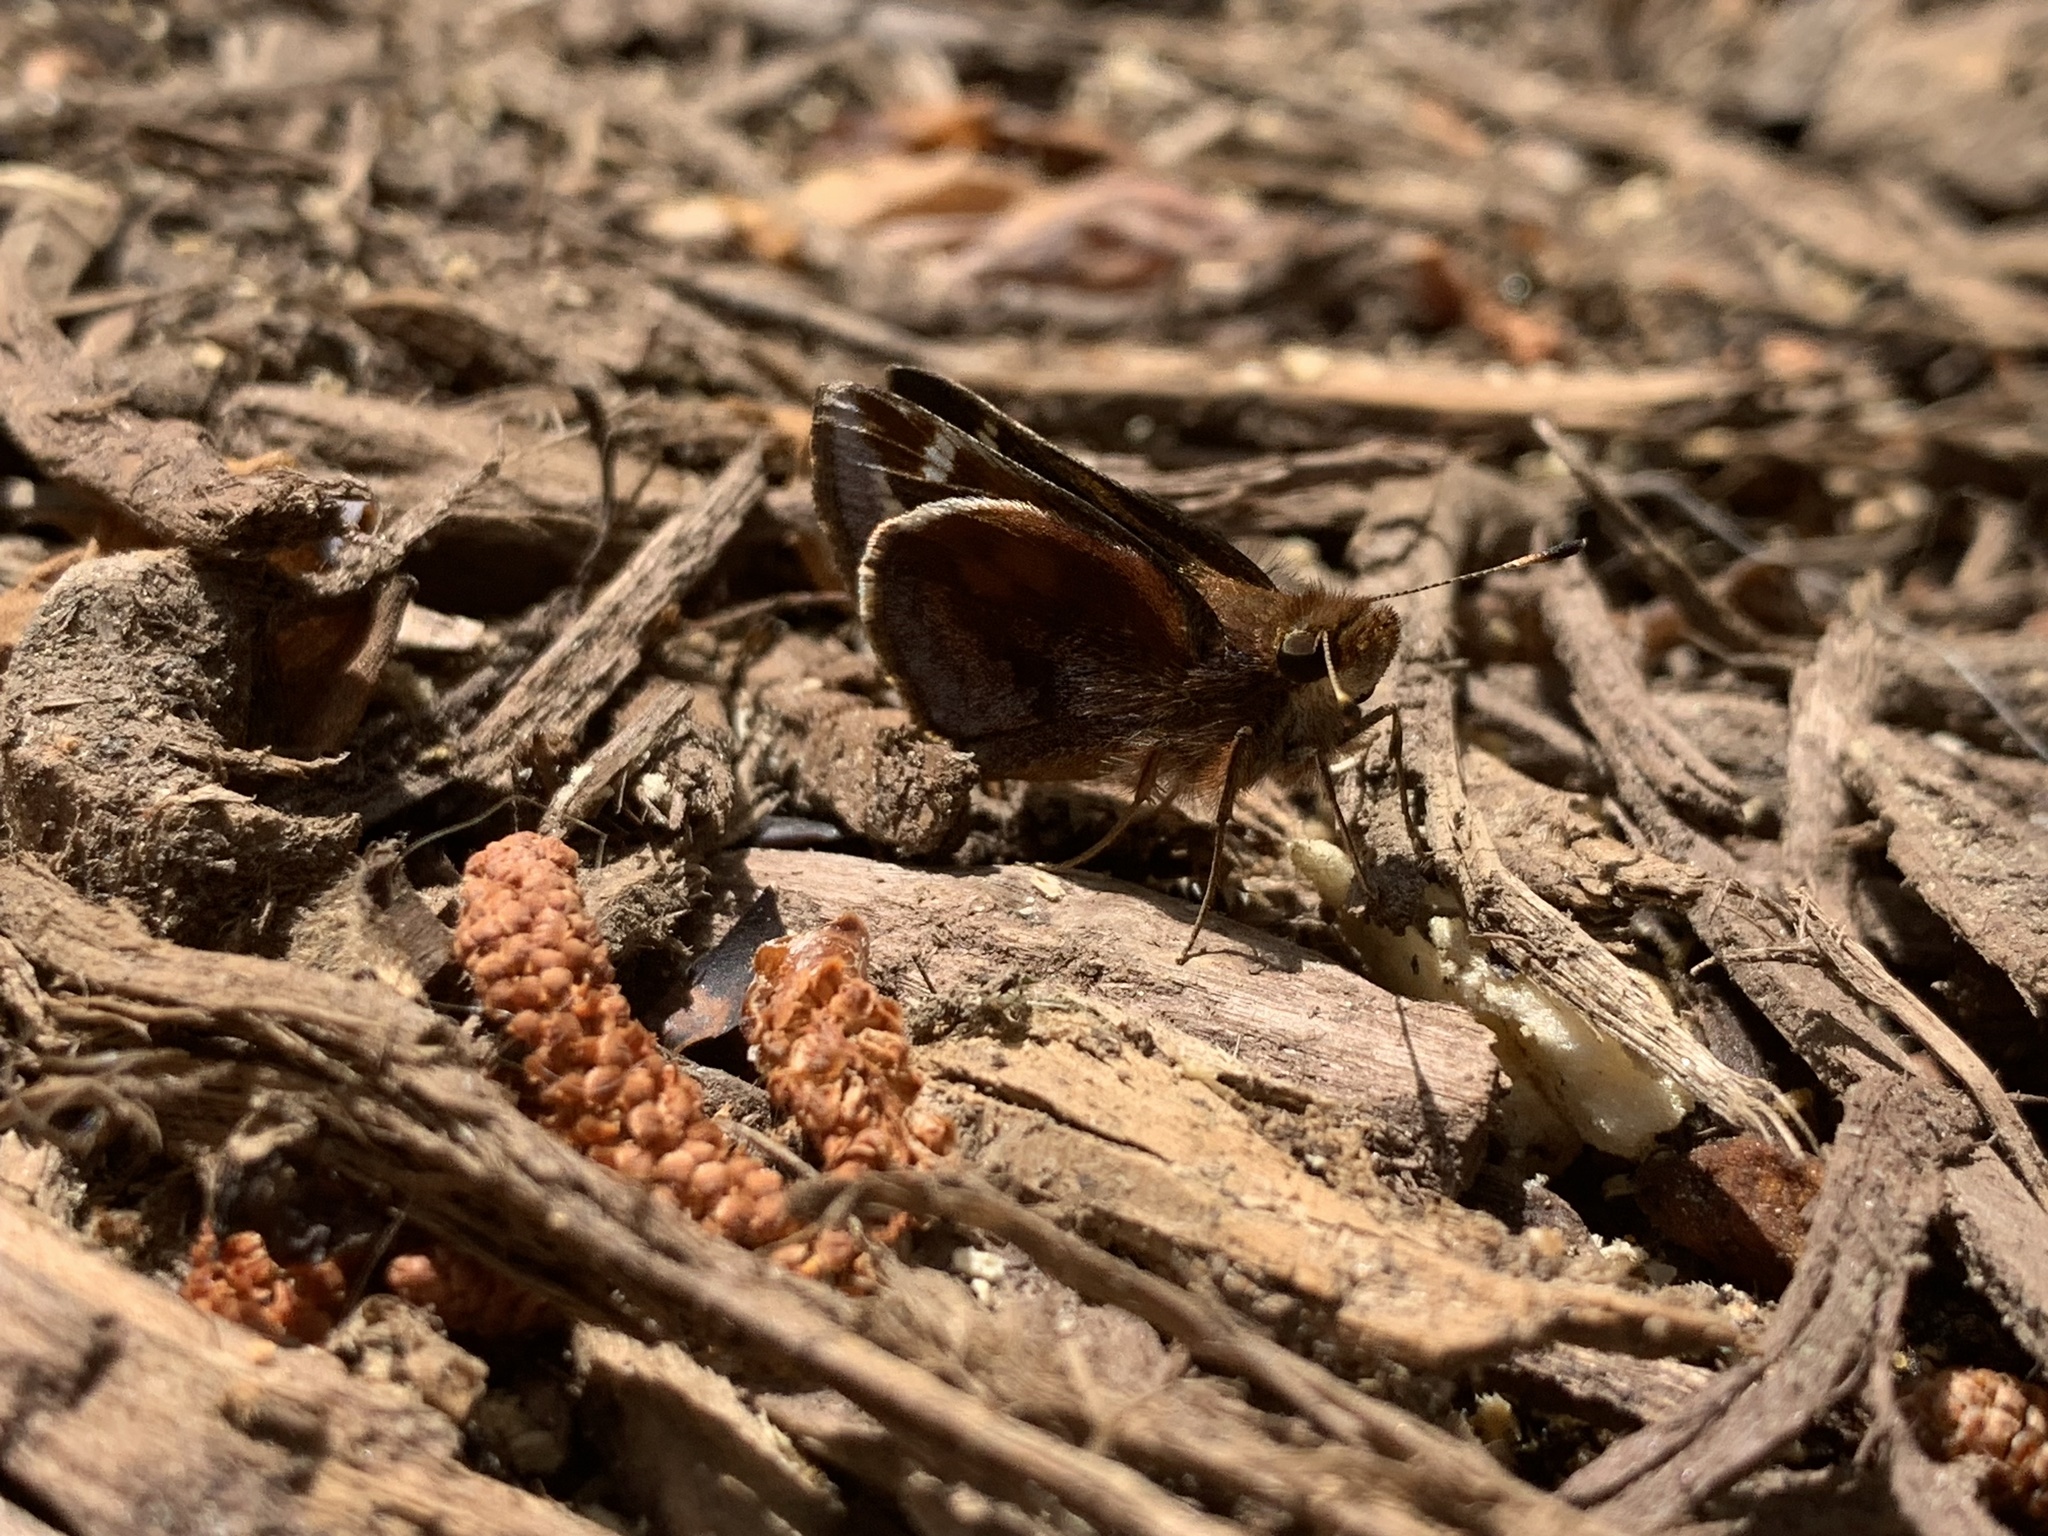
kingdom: Animalia
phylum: Arthropoda
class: Insecta
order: Lepidoptera
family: Hesperiidae
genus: Lon
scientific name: Lon zabulon
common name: Zabulon skipper
